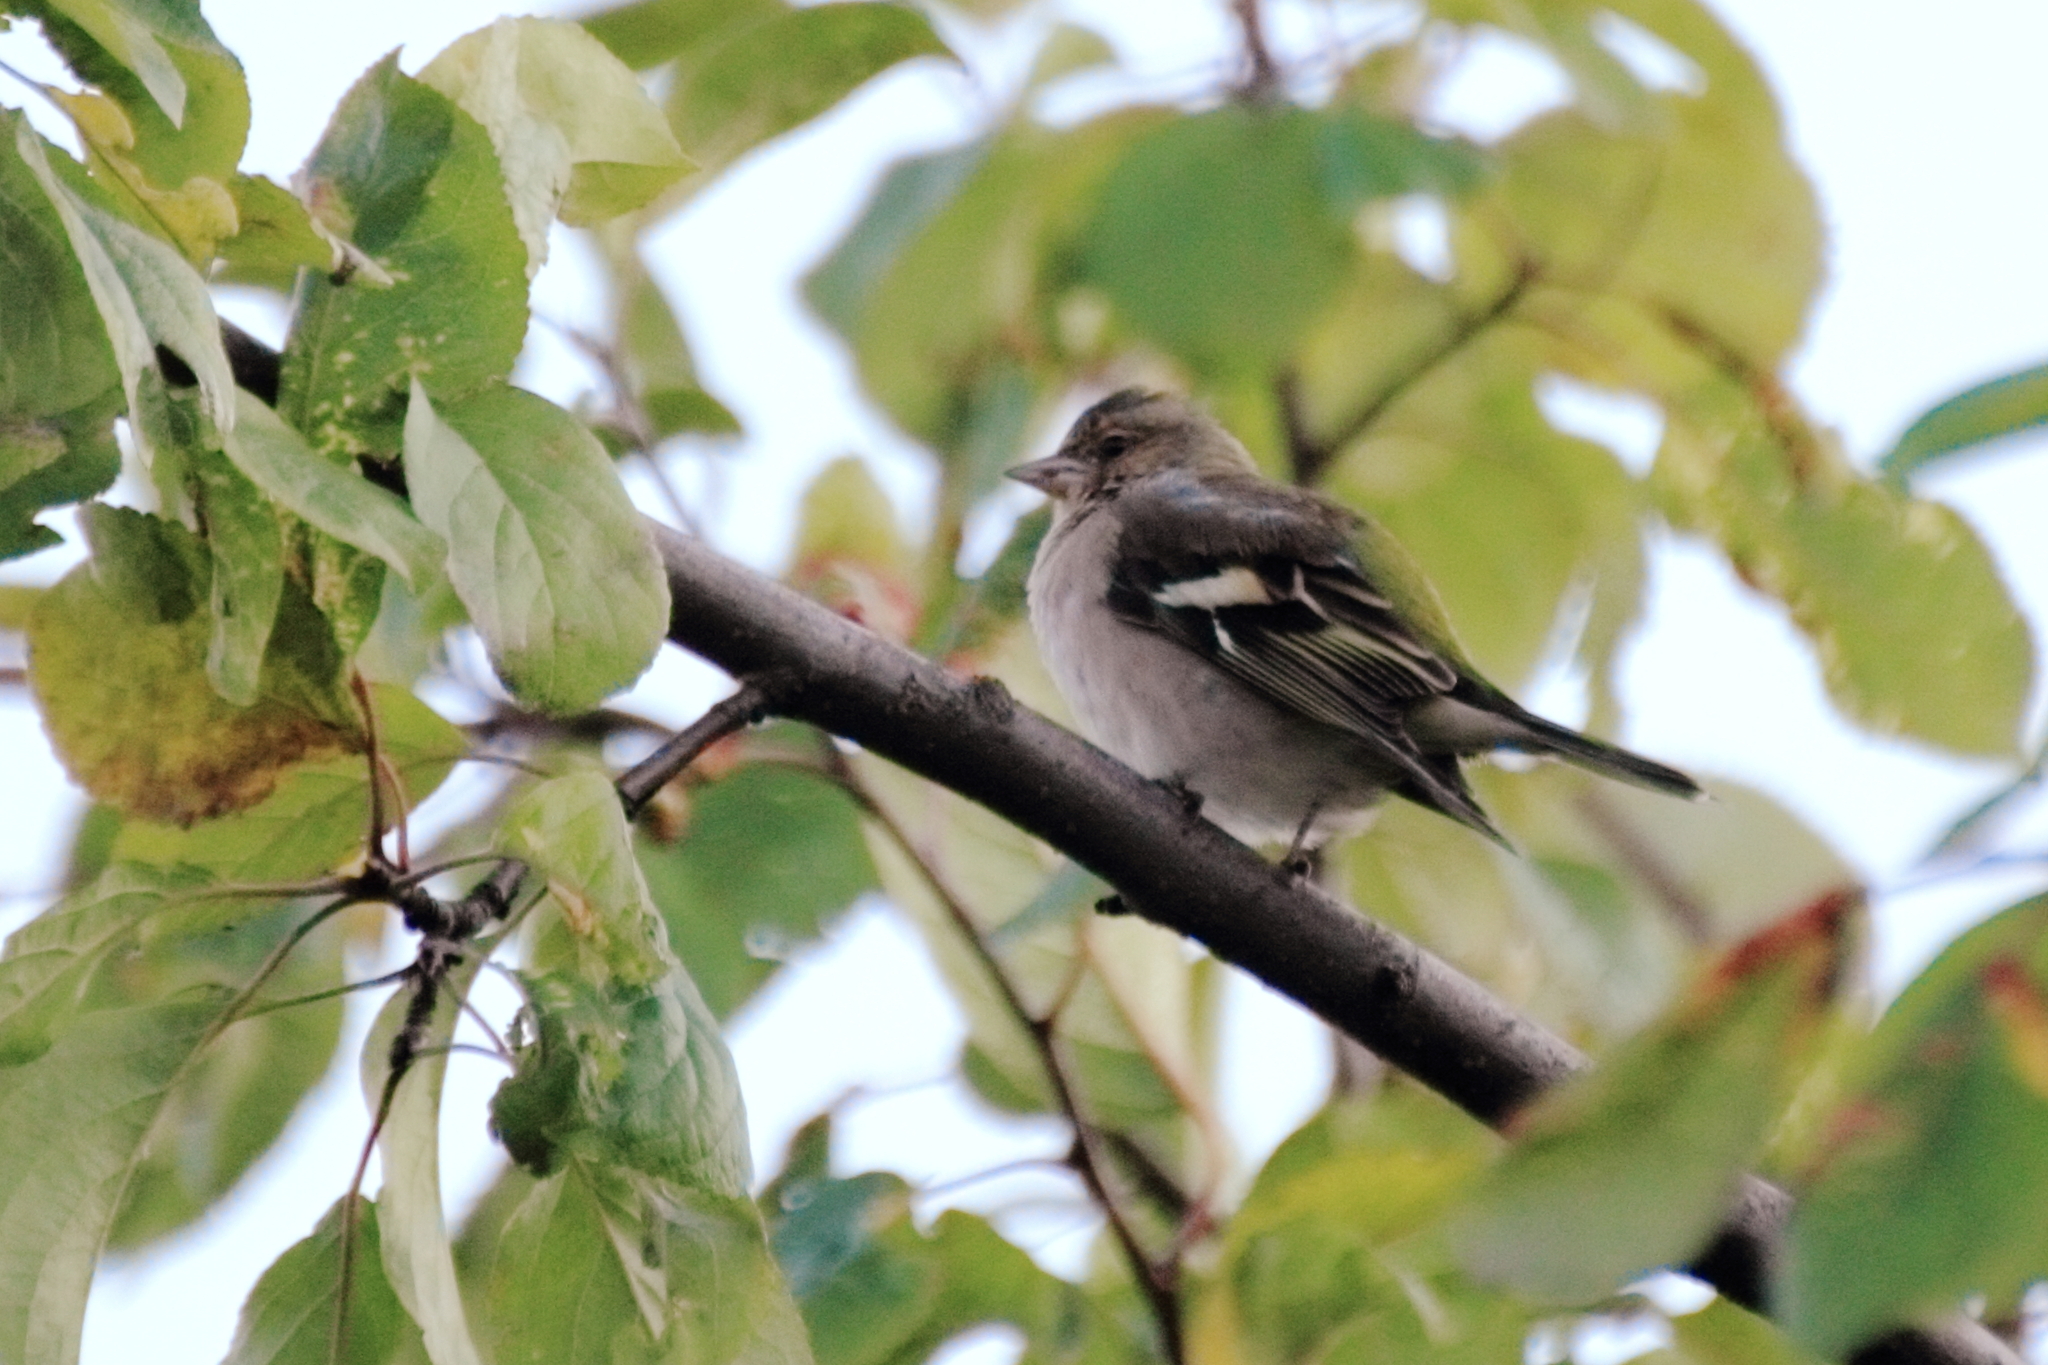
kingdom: Animalia
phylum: Chordata
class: Aves
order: Passeriformes
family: Fringillidae
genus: Fringilla
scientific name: Fringilla coelebs
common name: Common chaffinch
